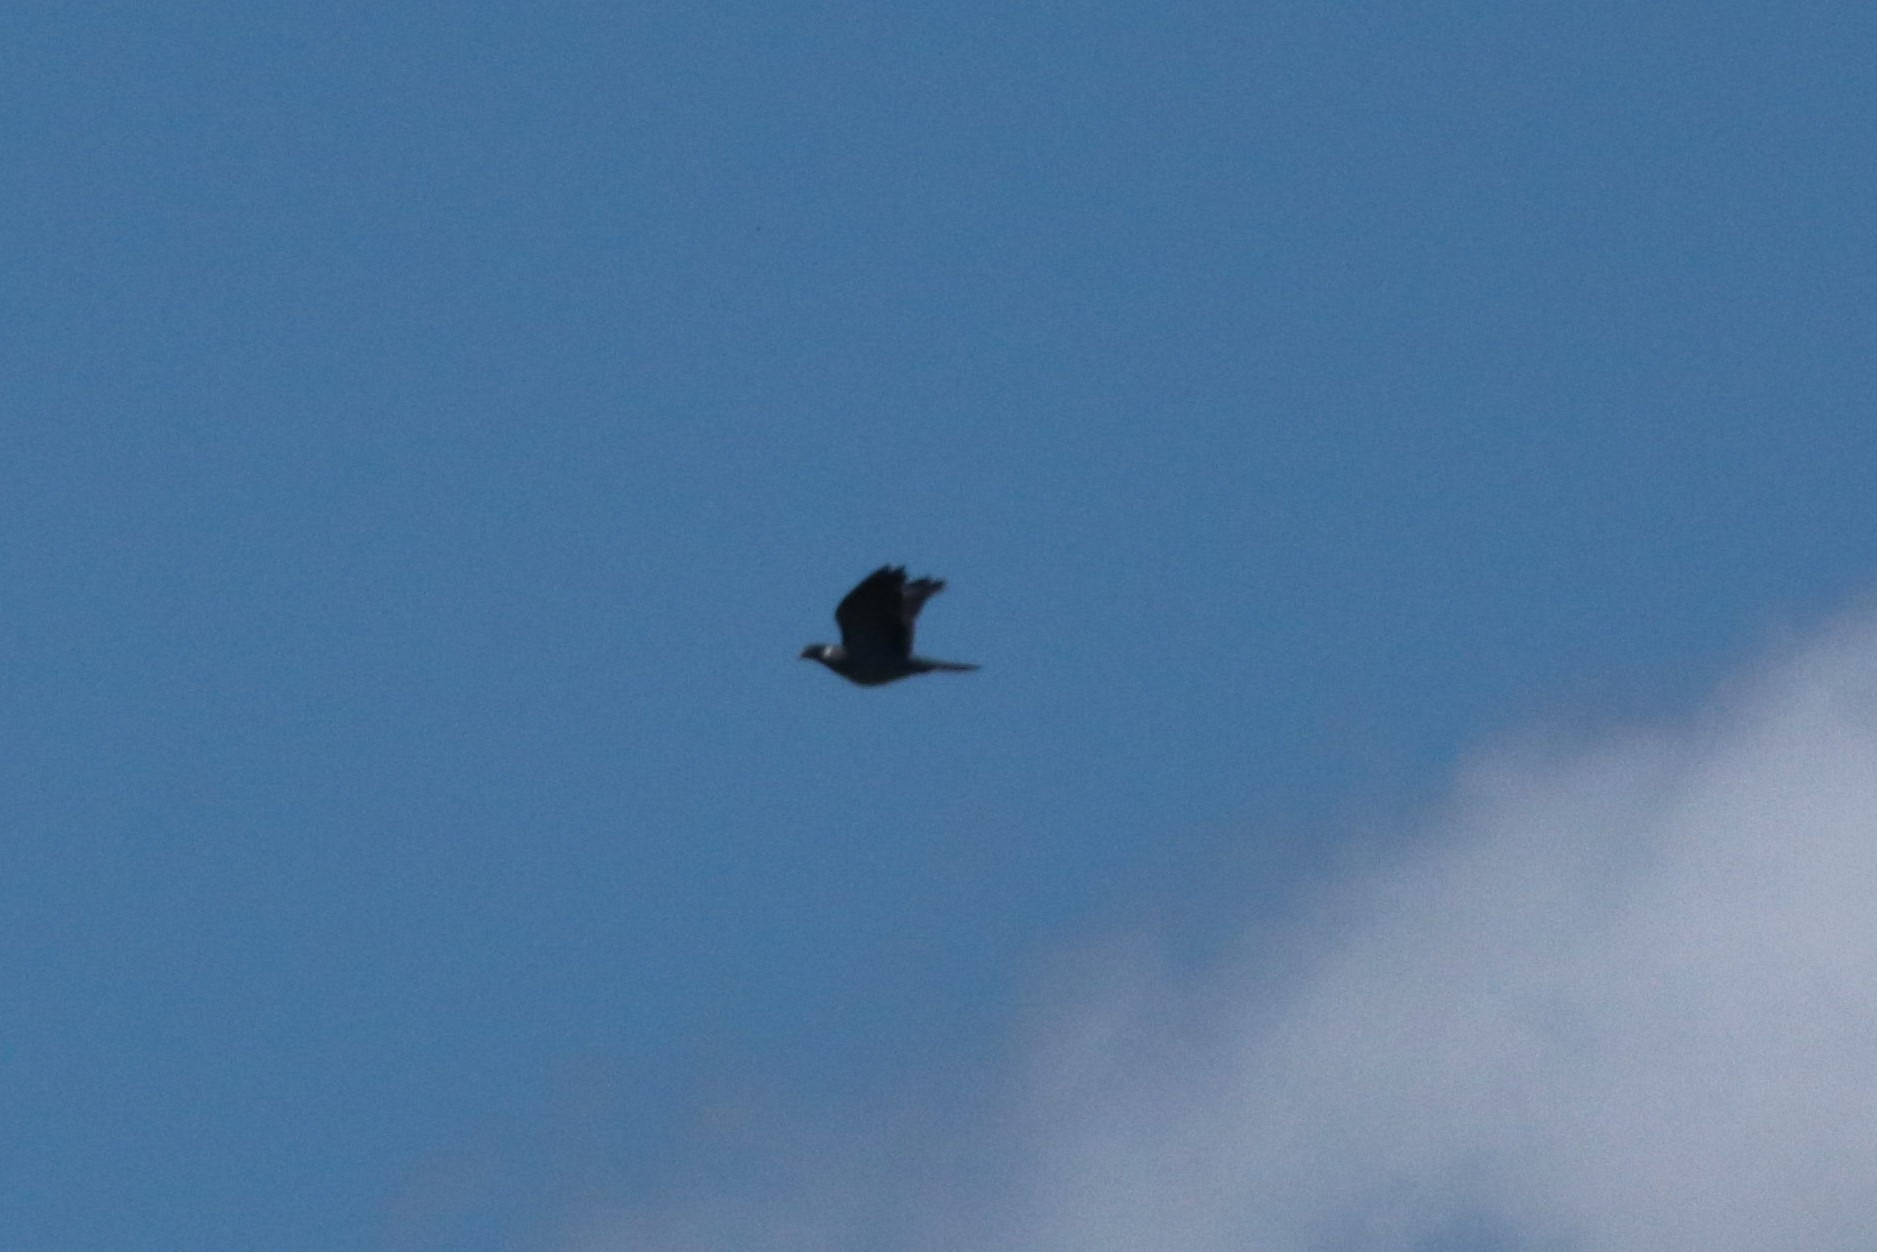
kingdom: Animalia
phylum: Chordata
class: Aves
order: Columbiformes
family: Columbidae
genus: Columba
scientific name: Columba palumbus
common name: Common wood pigeon
